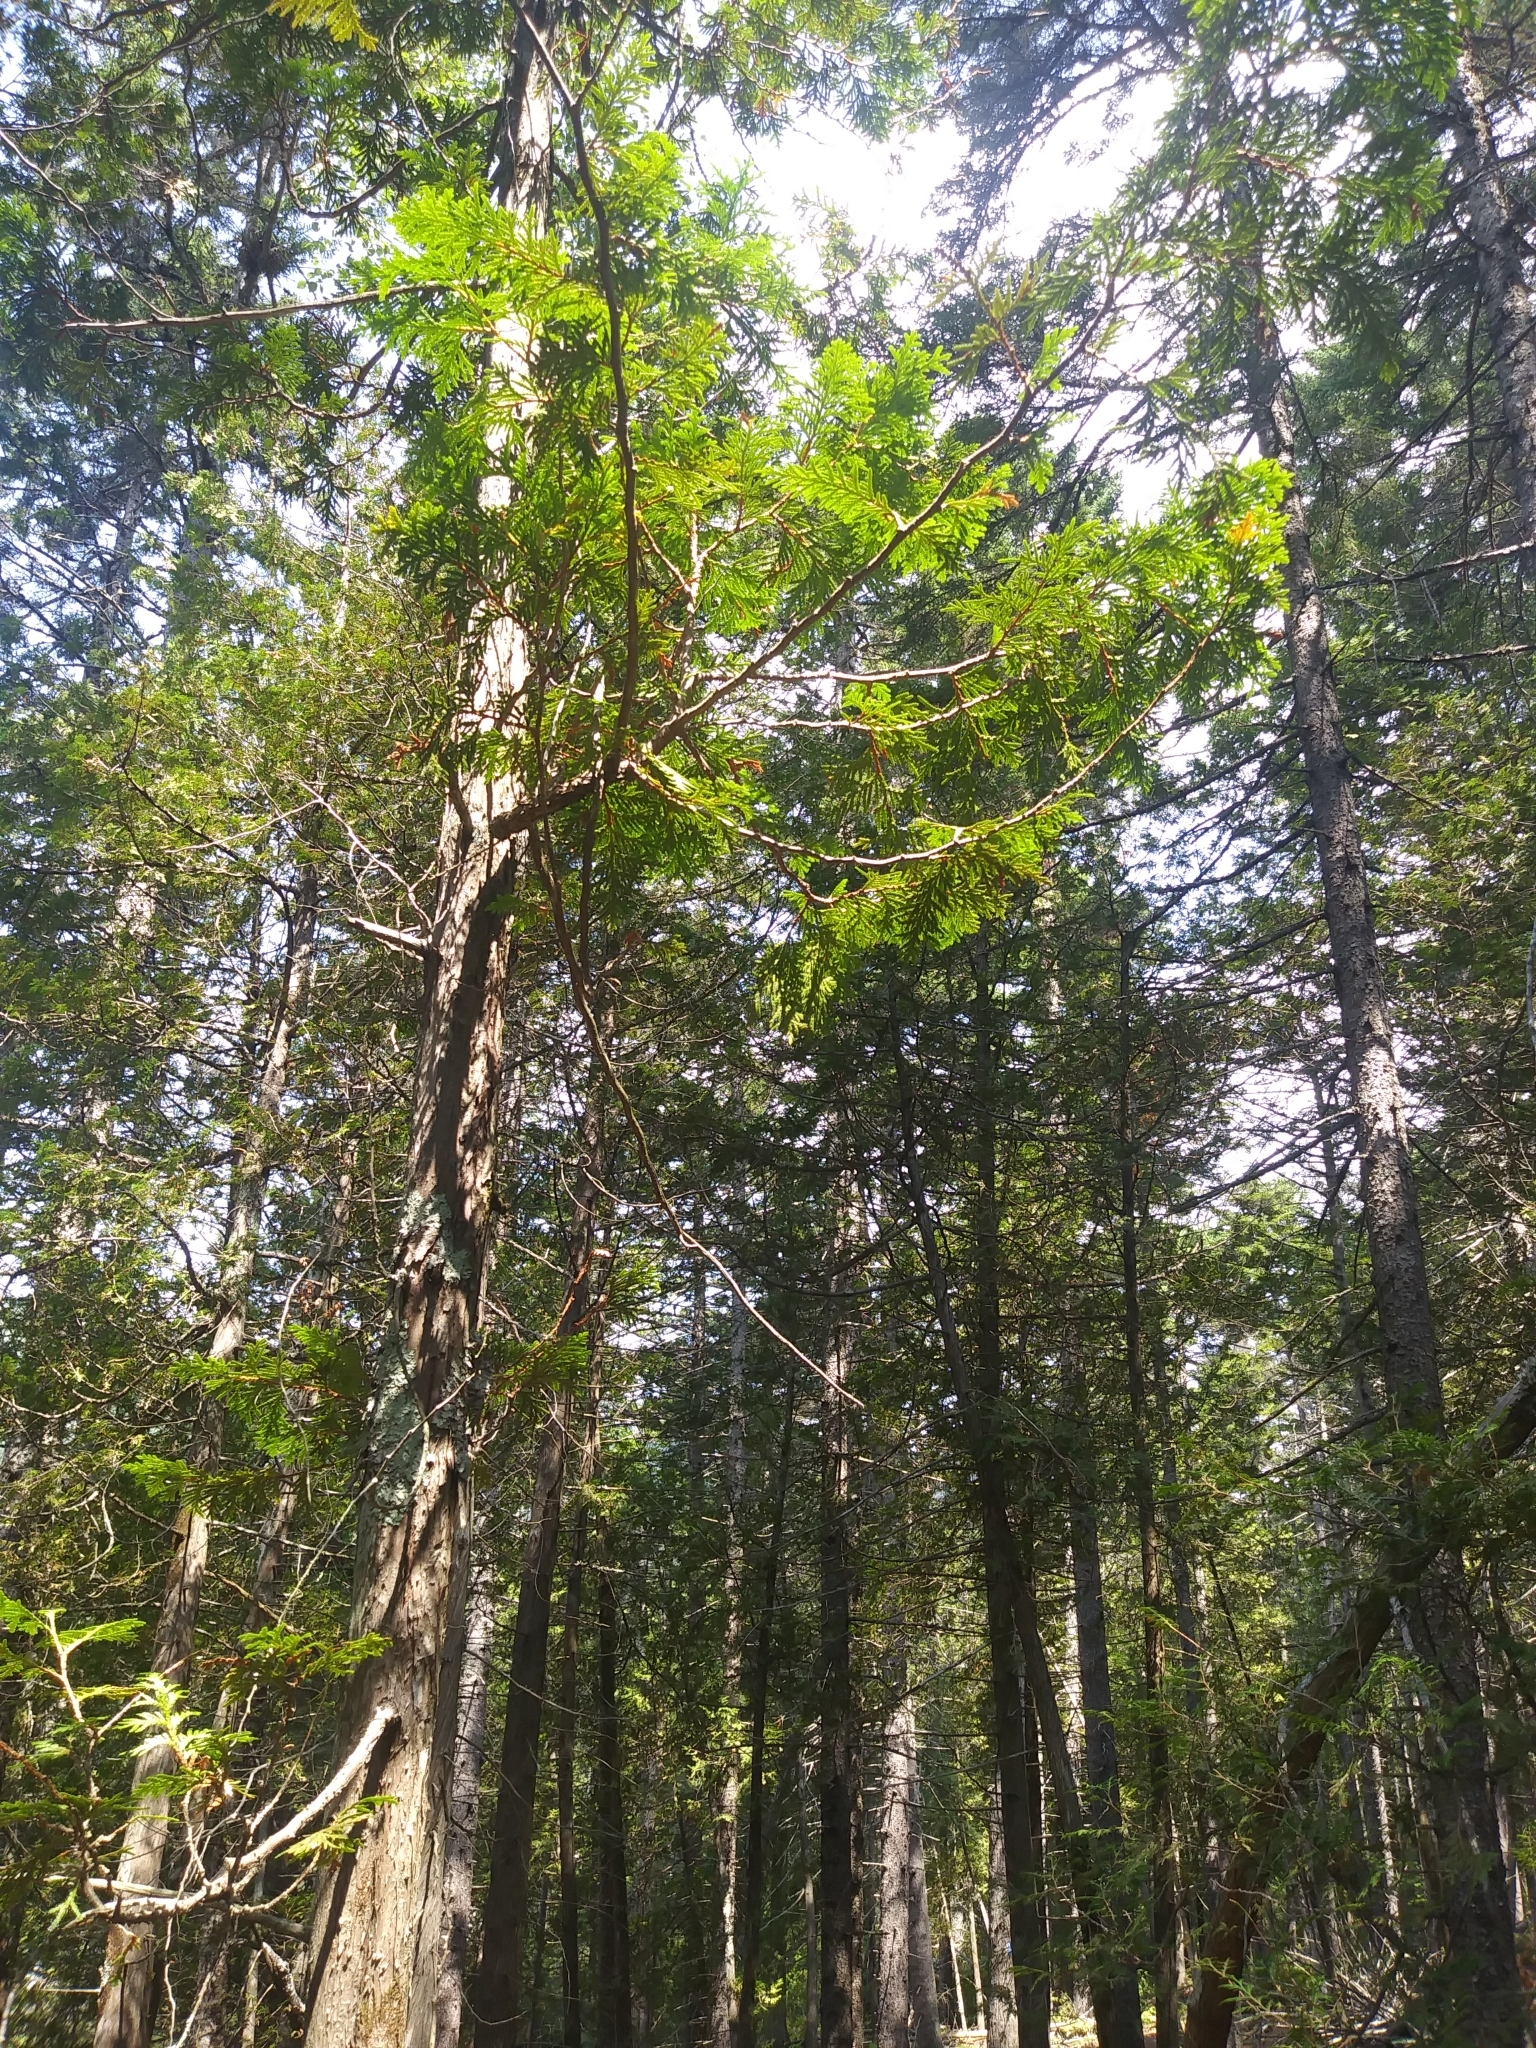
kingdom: Plantae
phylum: Tracheophyta
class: Pinopsida
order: Pinales
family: Cupressaceae
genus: Thuja
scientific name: Thuja occidentalis
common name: Northern white-cedar
